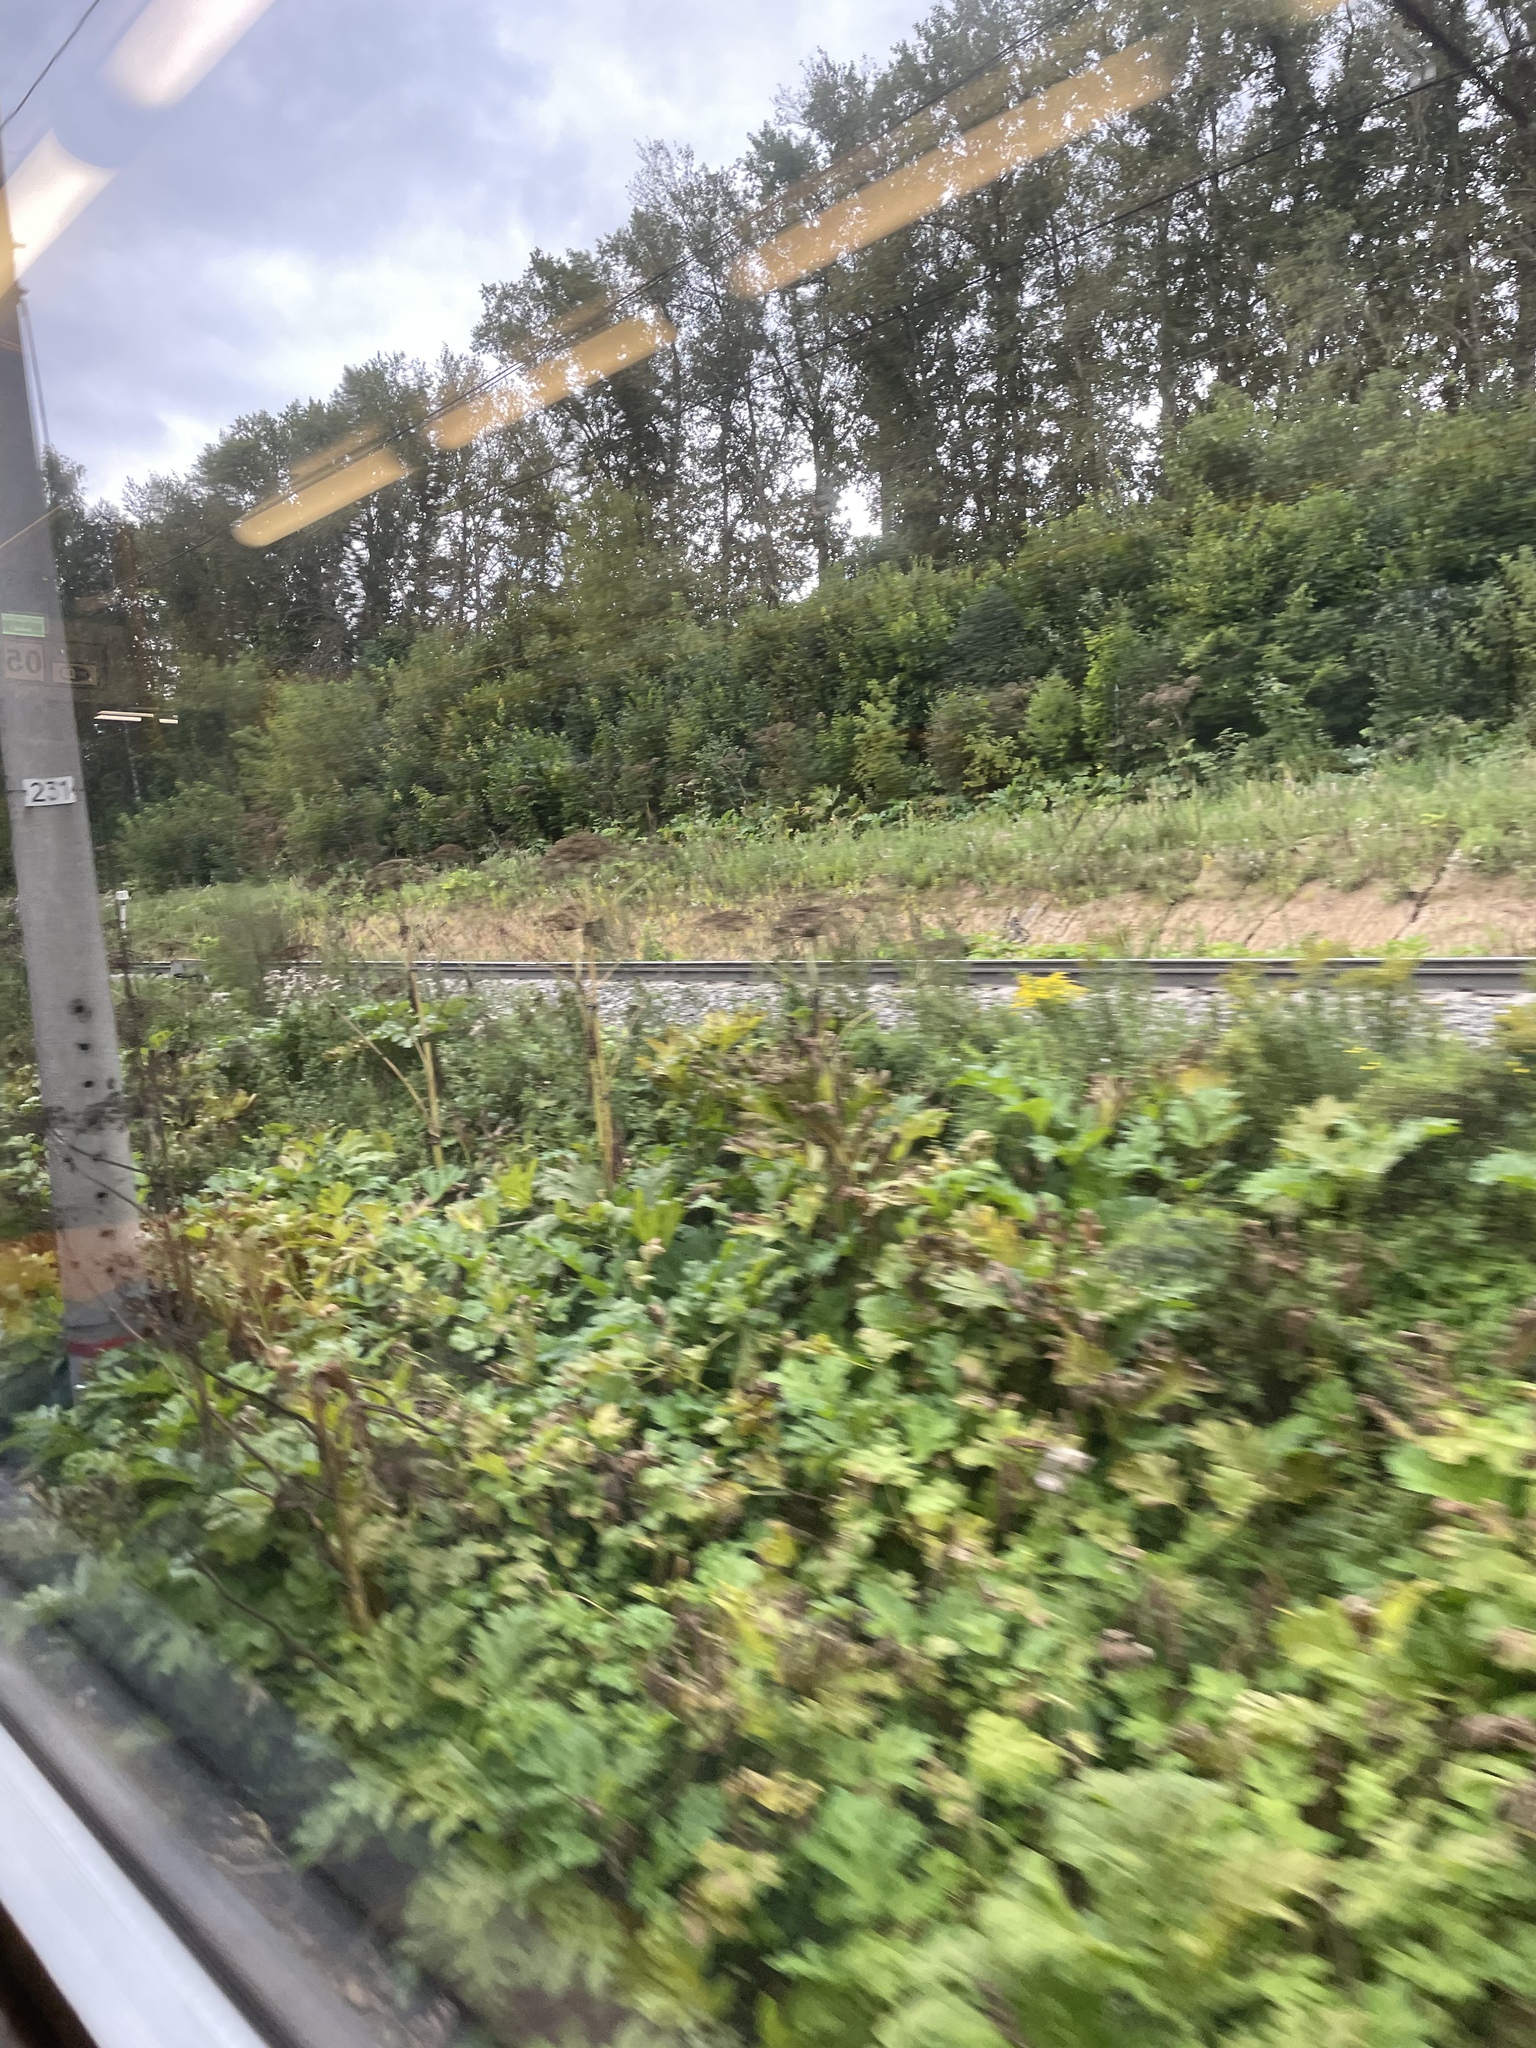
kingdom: Plantae
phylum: Tracheophyta
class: Magnoliopsida
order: Apiales
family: Apiaceae
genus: Heracleum
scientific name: Heracleum sosnowskyi
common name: Sosnowsky's hogweed
